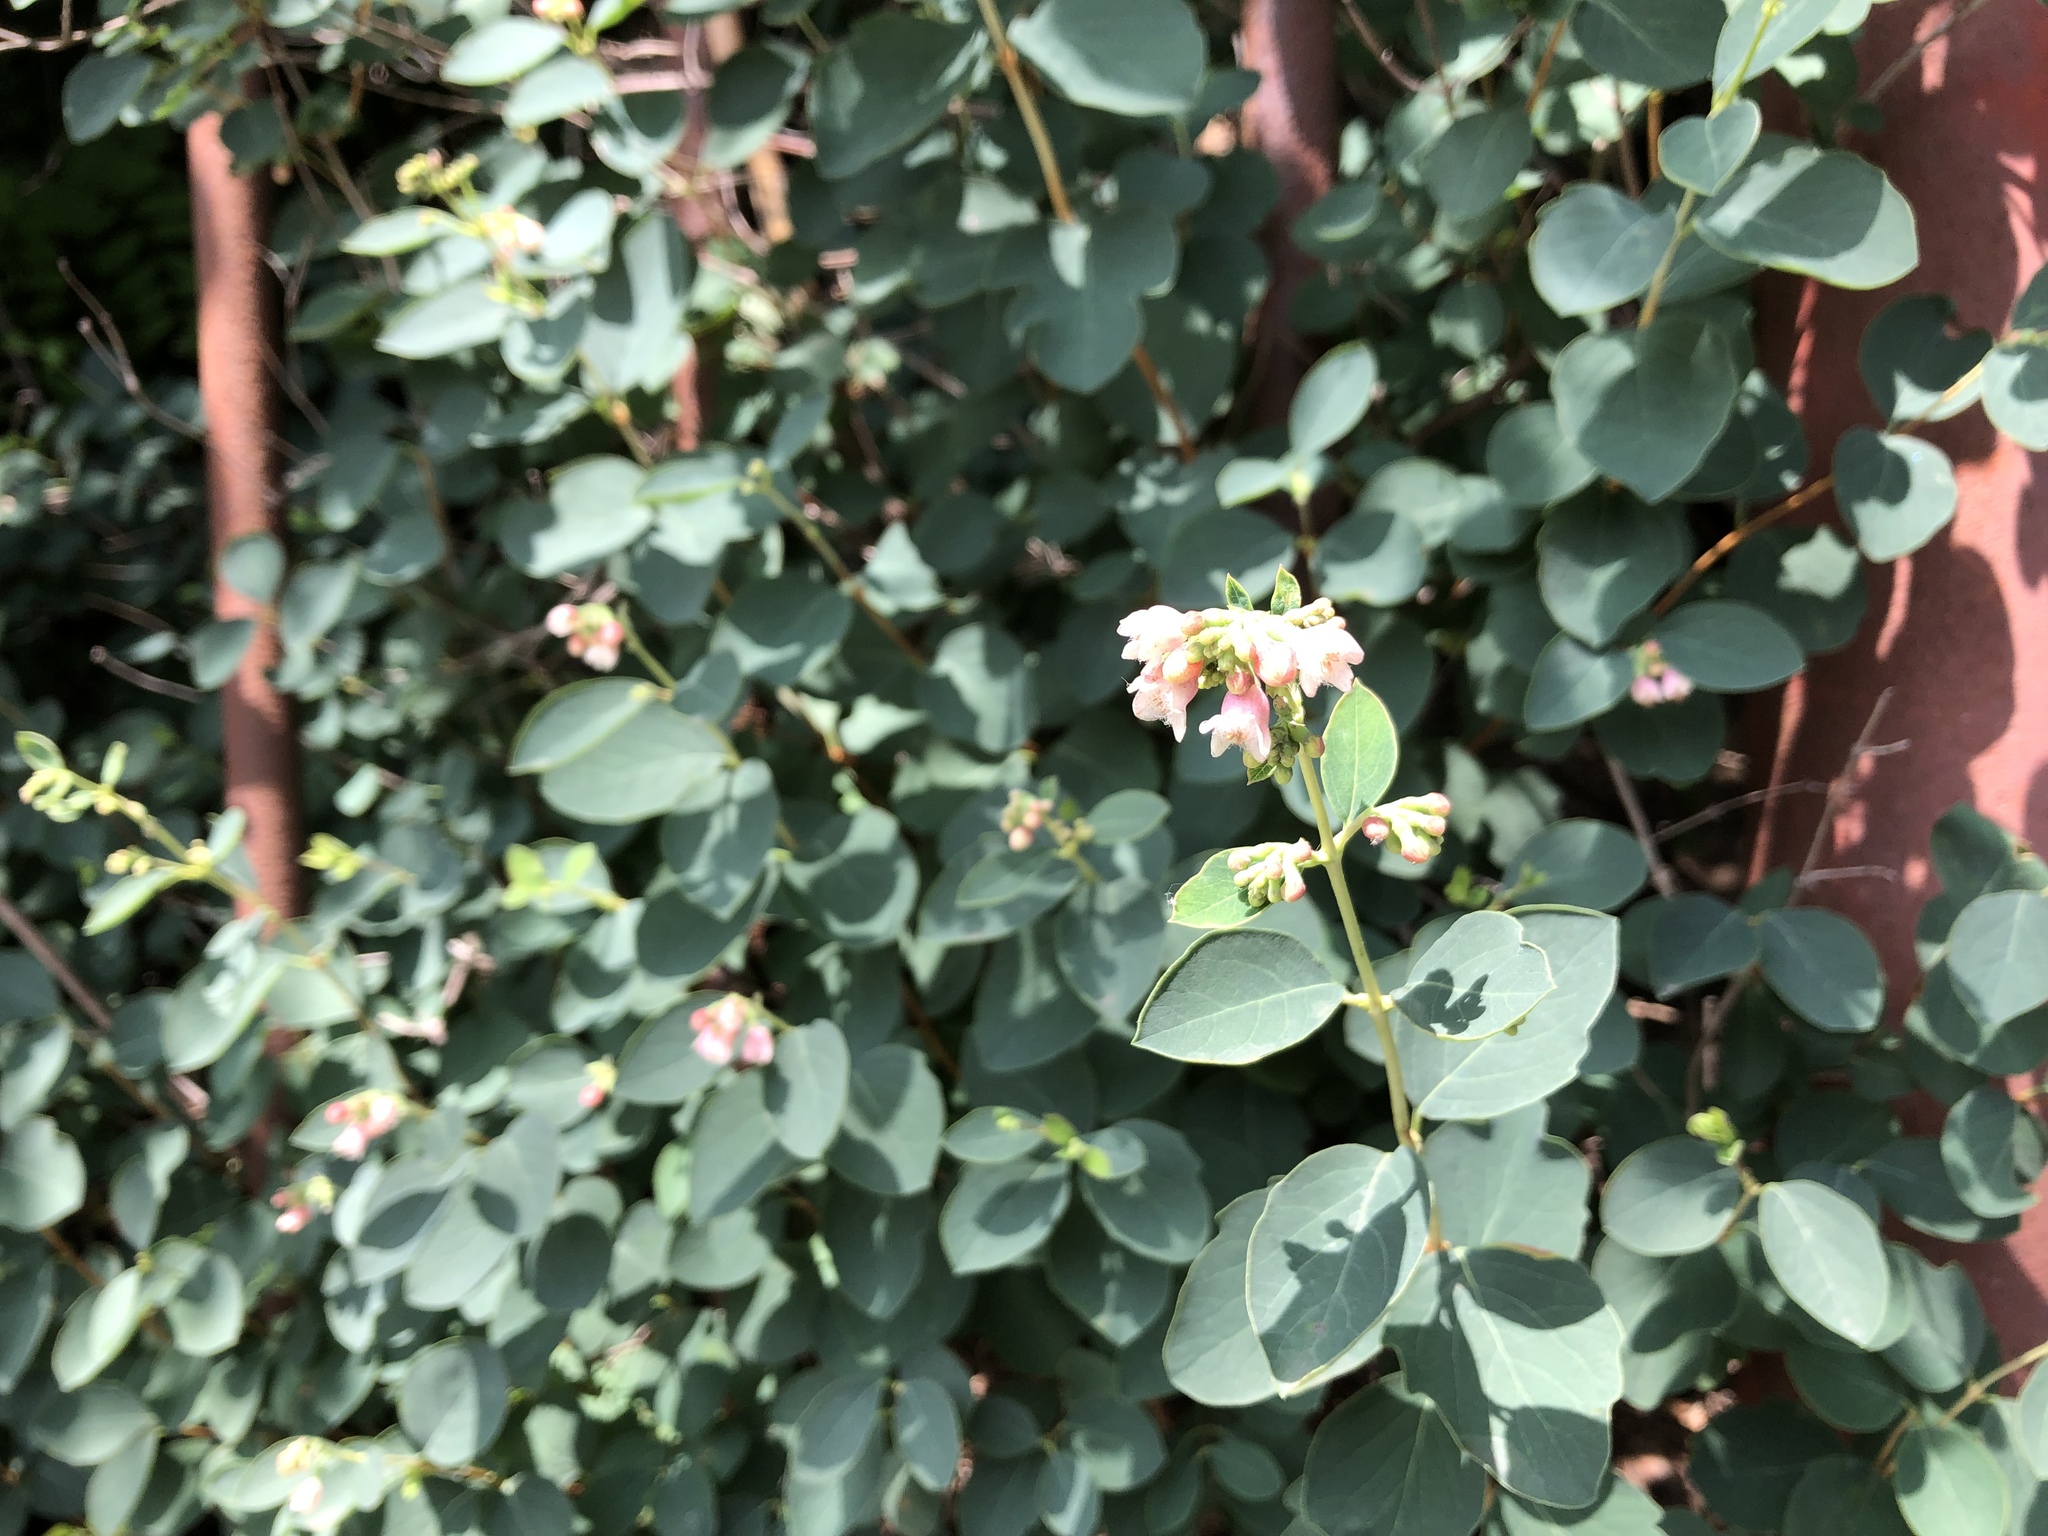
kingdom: Plantae
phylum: Tracheophyta
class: Magnoliopsida
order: Dipsacales
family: Caprifoliaceae
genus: Symphoricarpos
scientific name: Symphoricarpos albus
